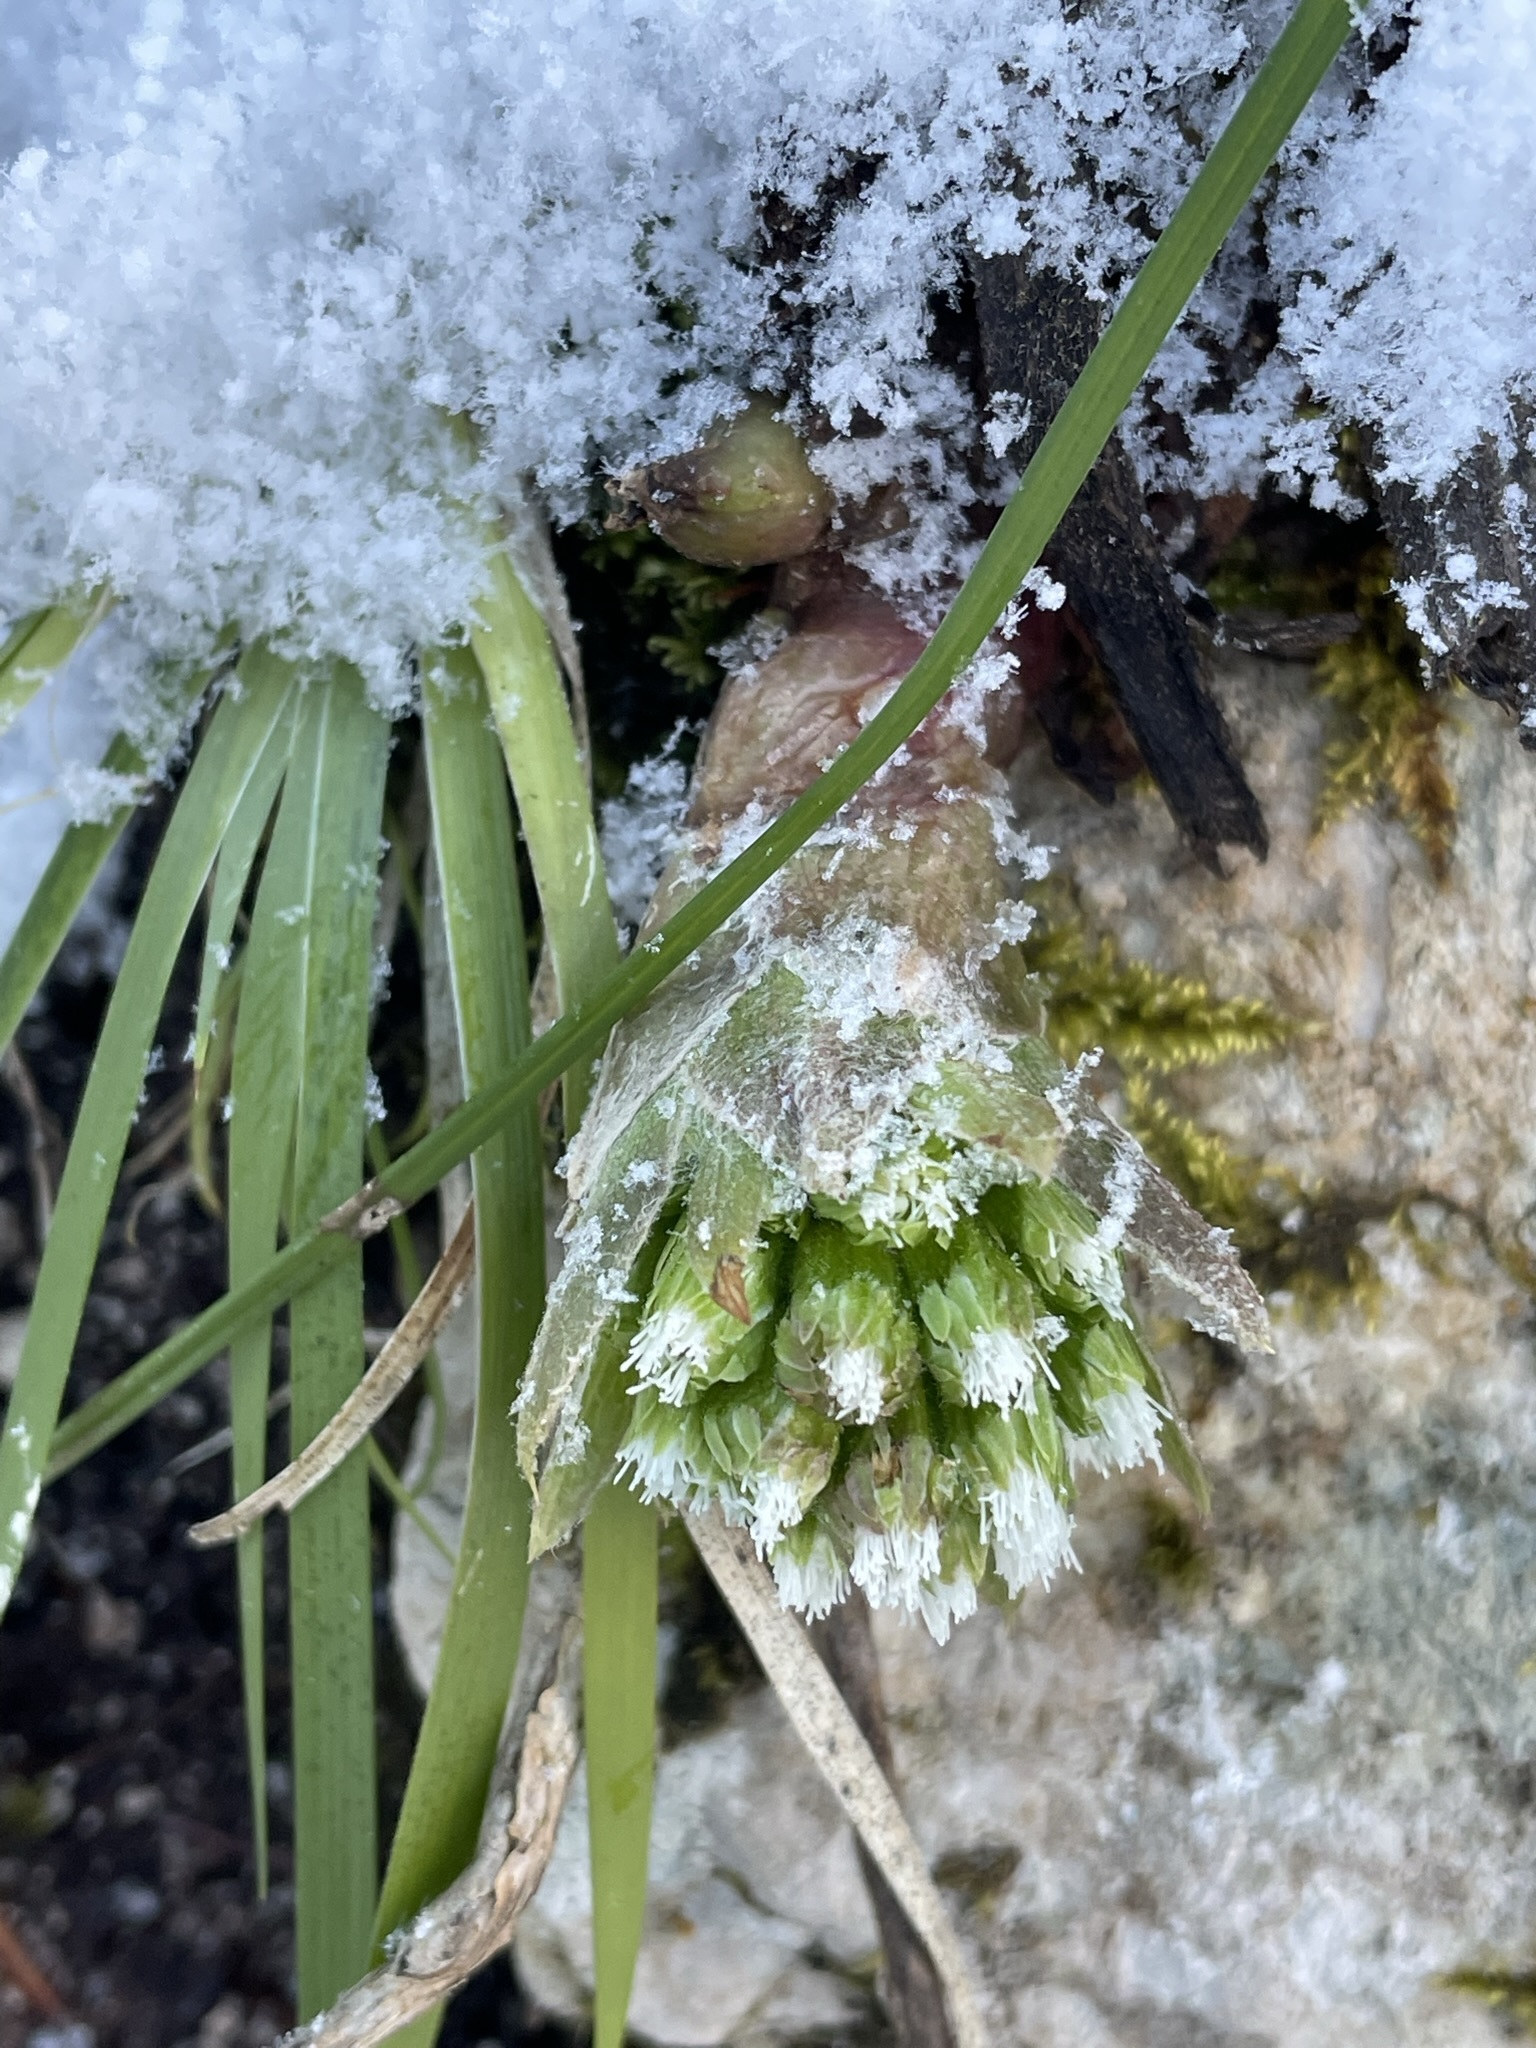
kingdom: Plantae
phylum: Tracheophyta
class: Magnoliopsida
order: Asterales
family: Asteraceae
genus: Petasites
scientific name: Petasites albus
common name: White butterbur
